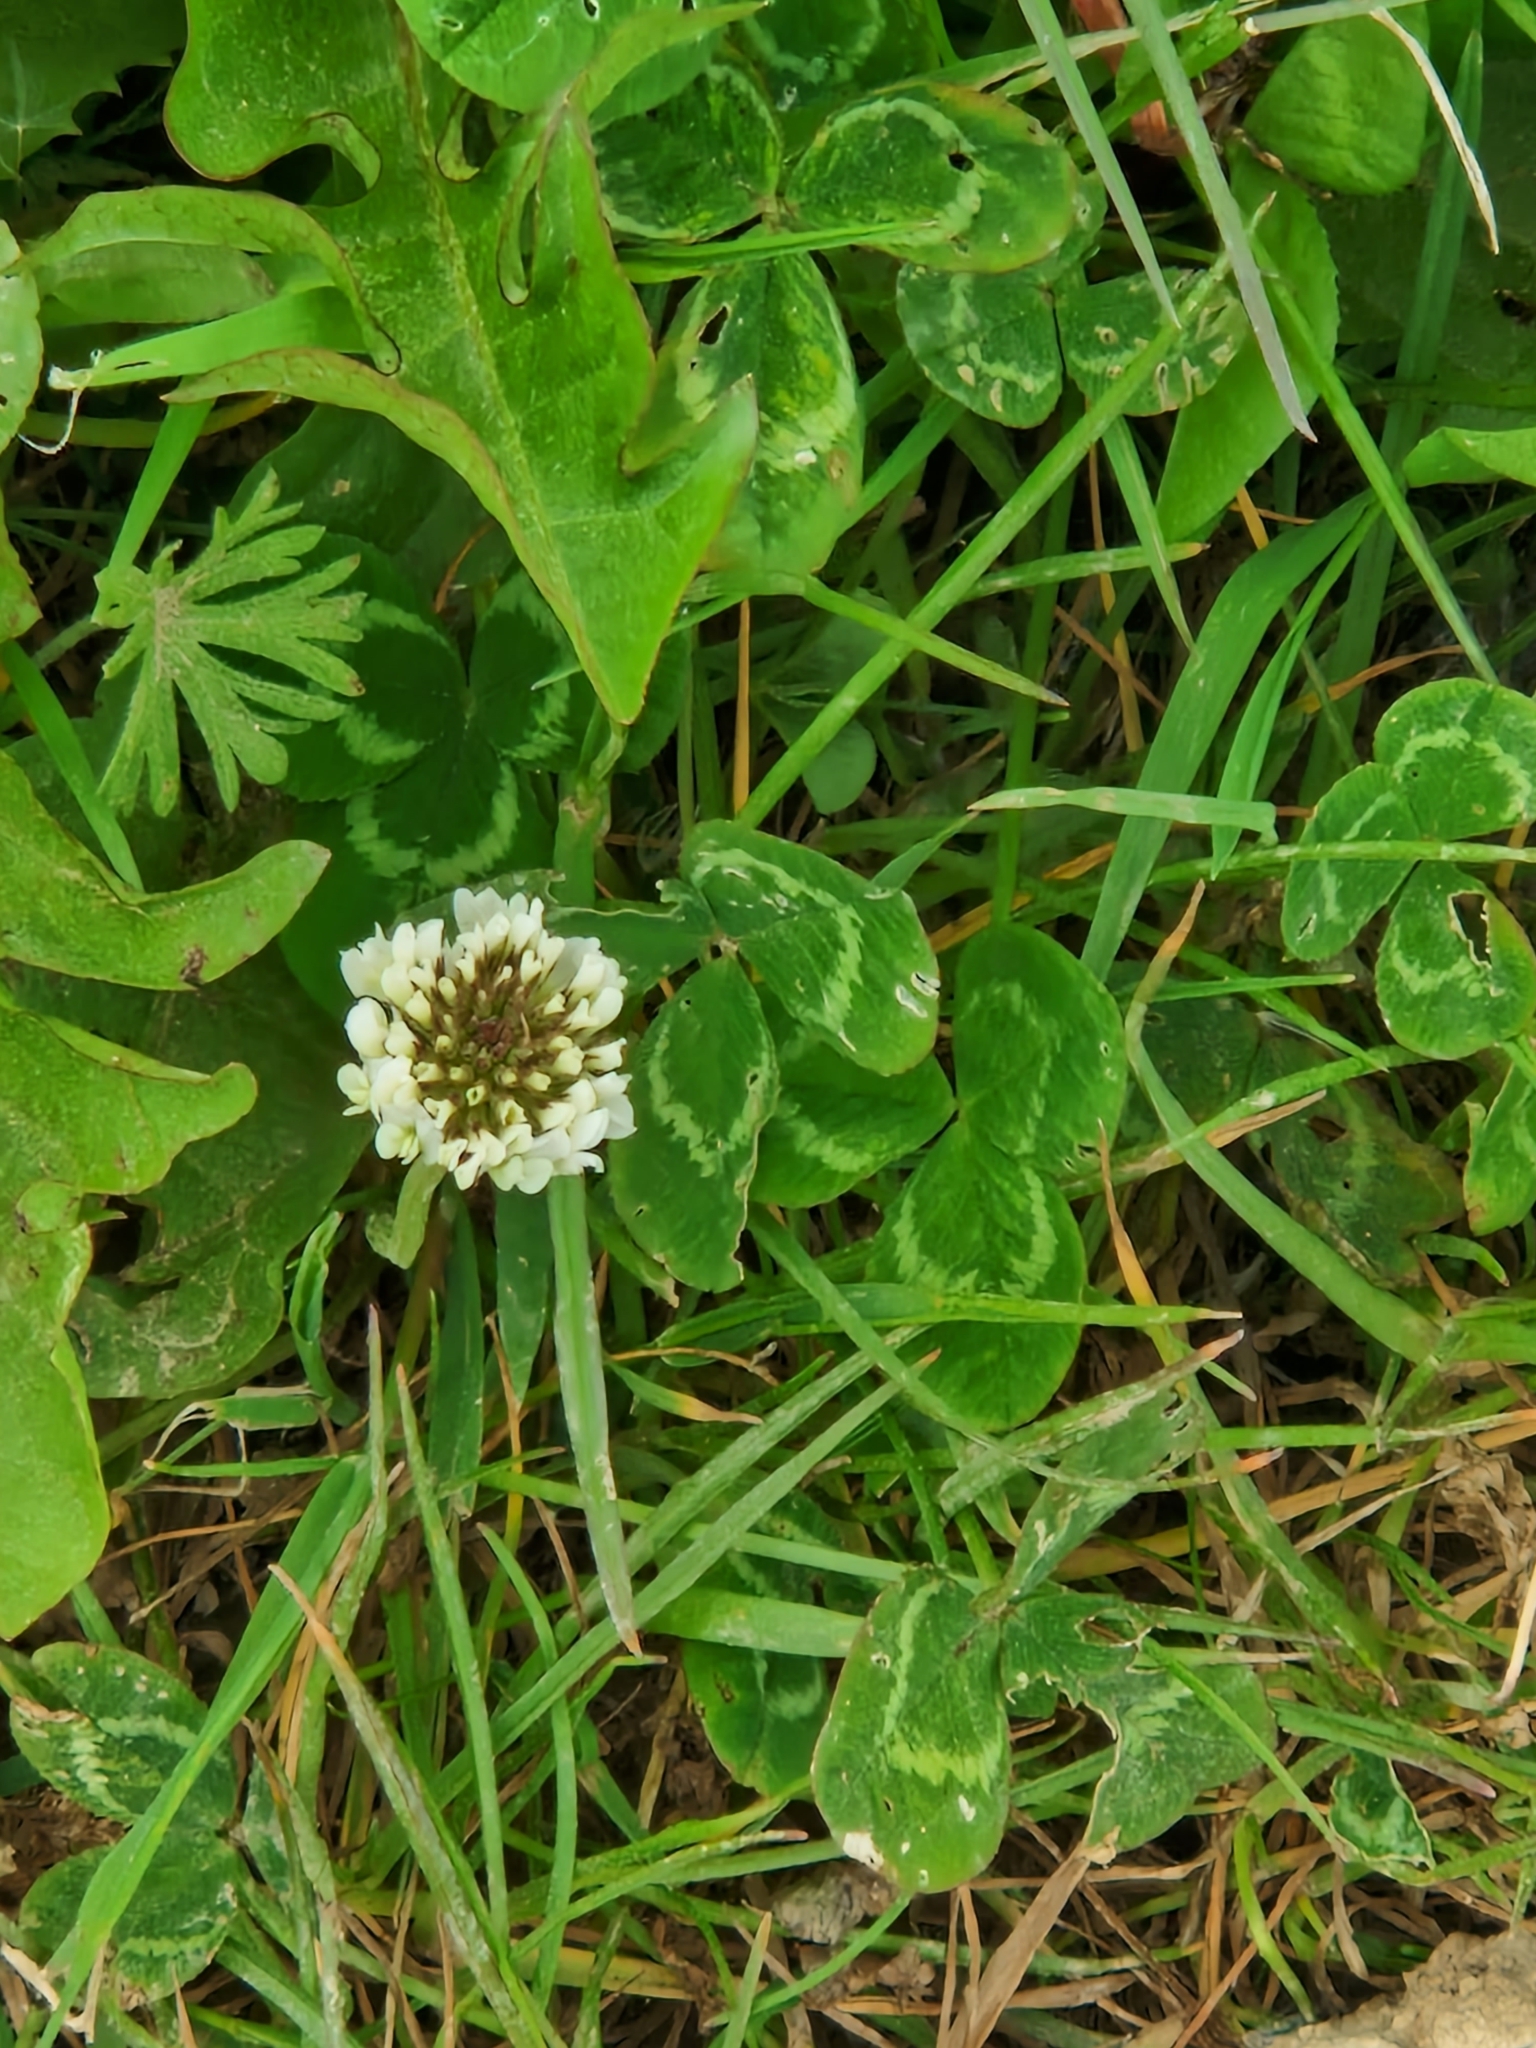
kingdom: Plantae
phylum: Tracheophyta
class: Magnoliopsida
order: Fabales
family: Fabaceae
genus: Trifolium
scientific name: Trifolium repens
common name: White clover
